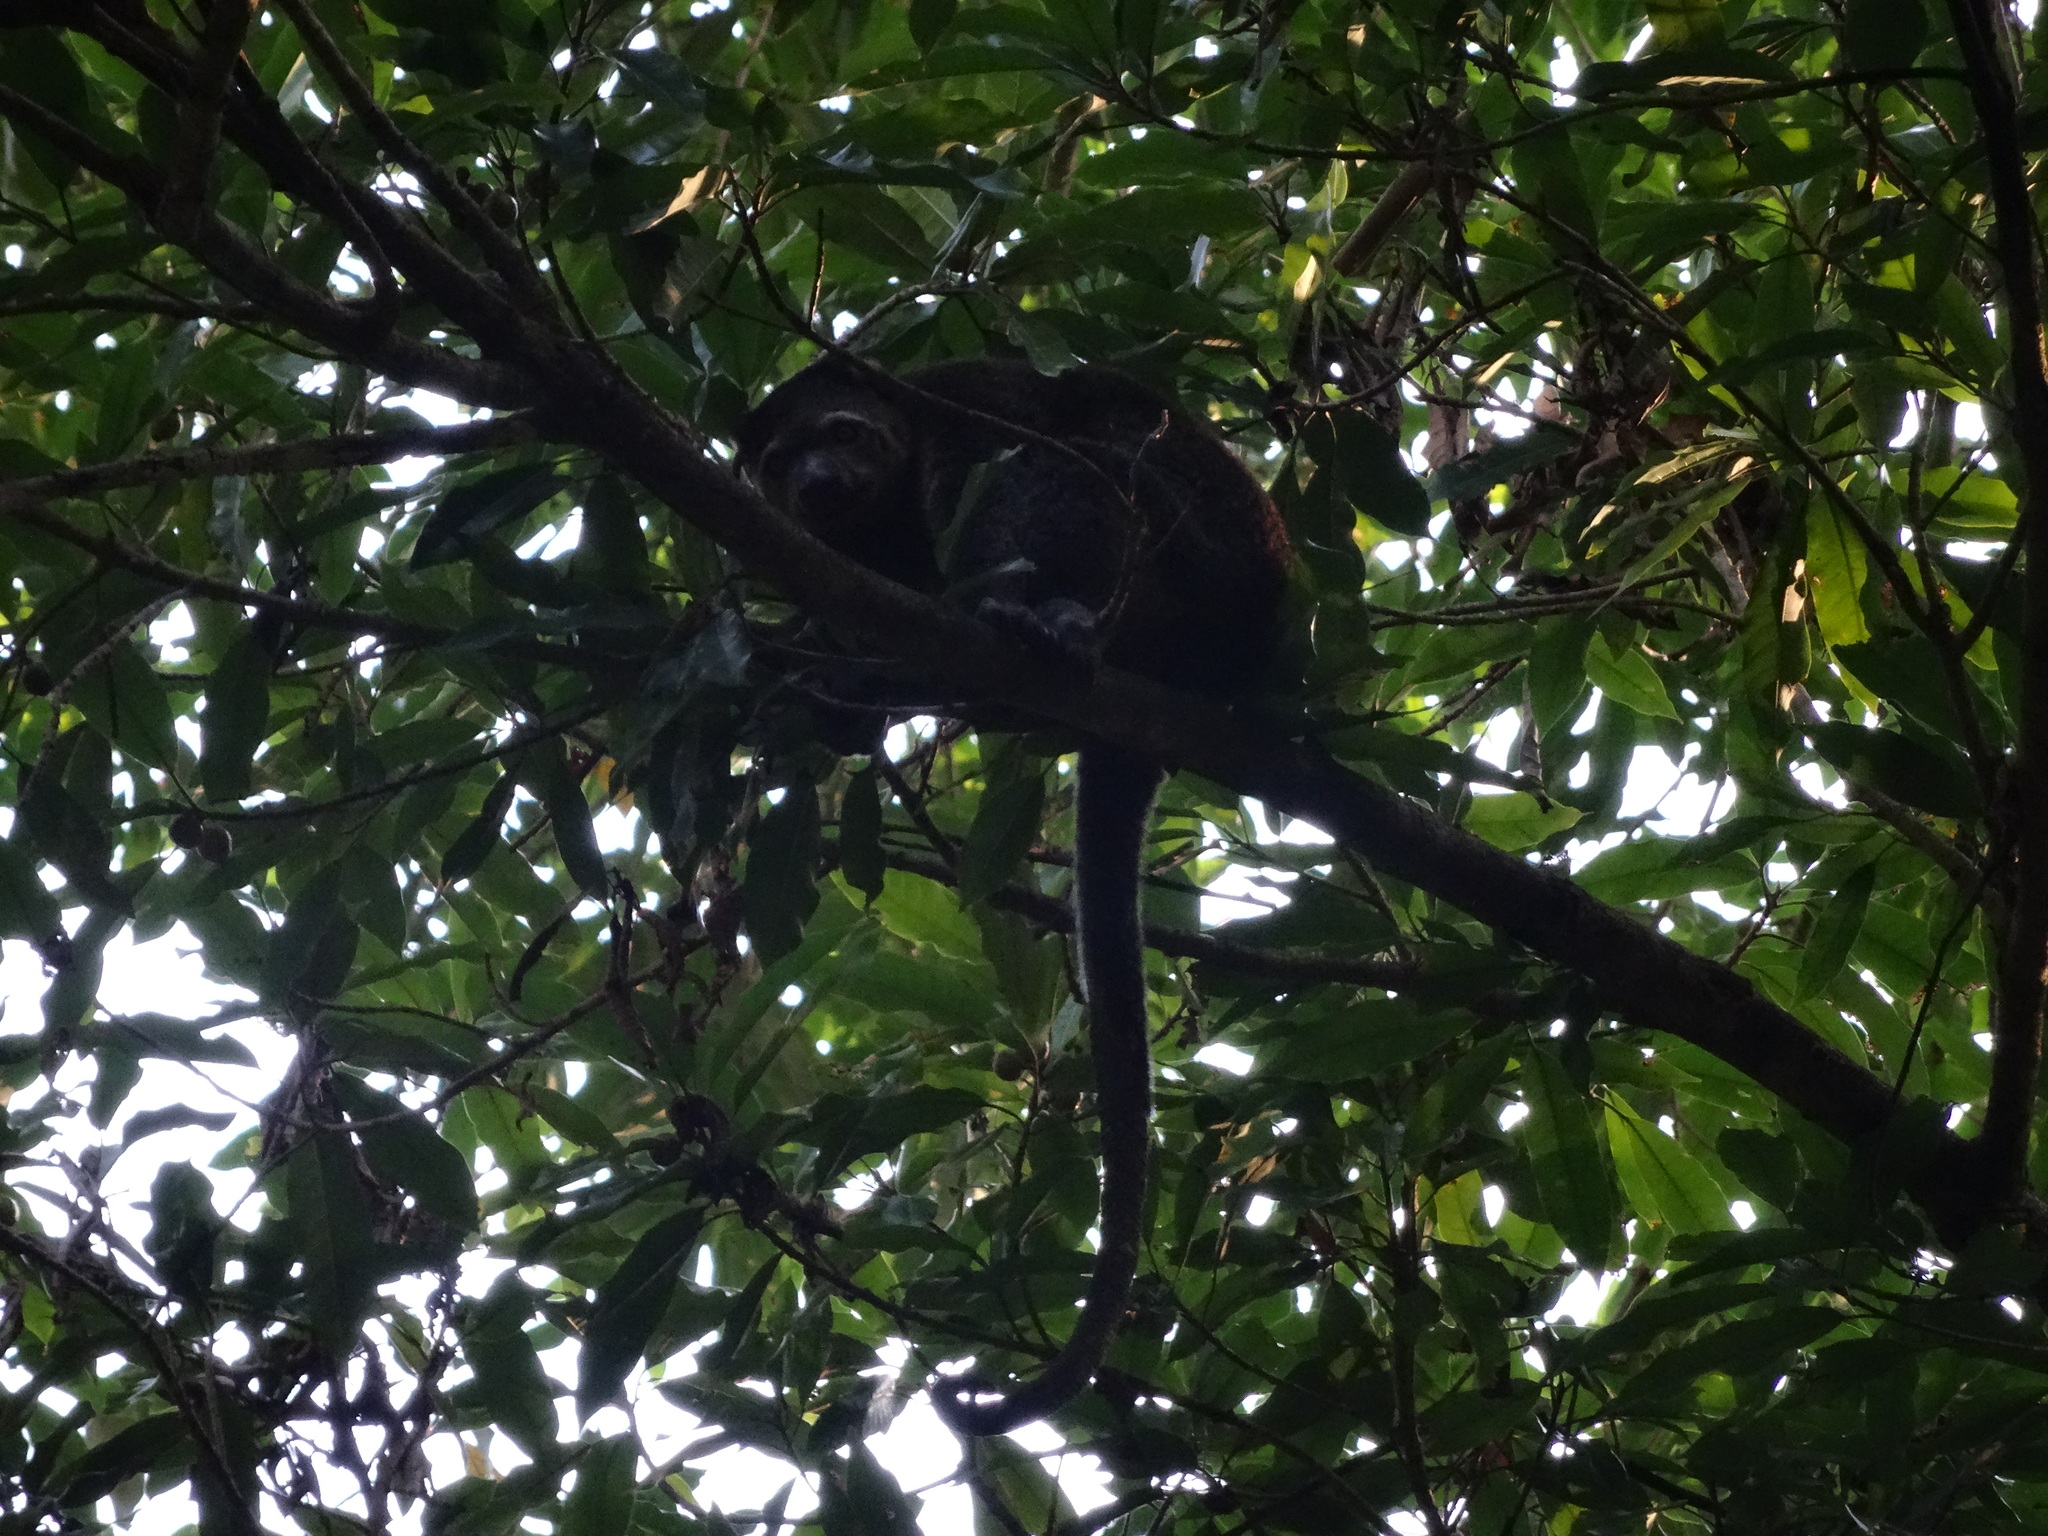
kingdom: Animalia
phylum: Chordata
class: Mammalia
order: Diprotodontia
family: Phalangeridae
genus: Ailurops
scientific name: Ailurops ursinus
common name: Sulawesi bear cuscus
